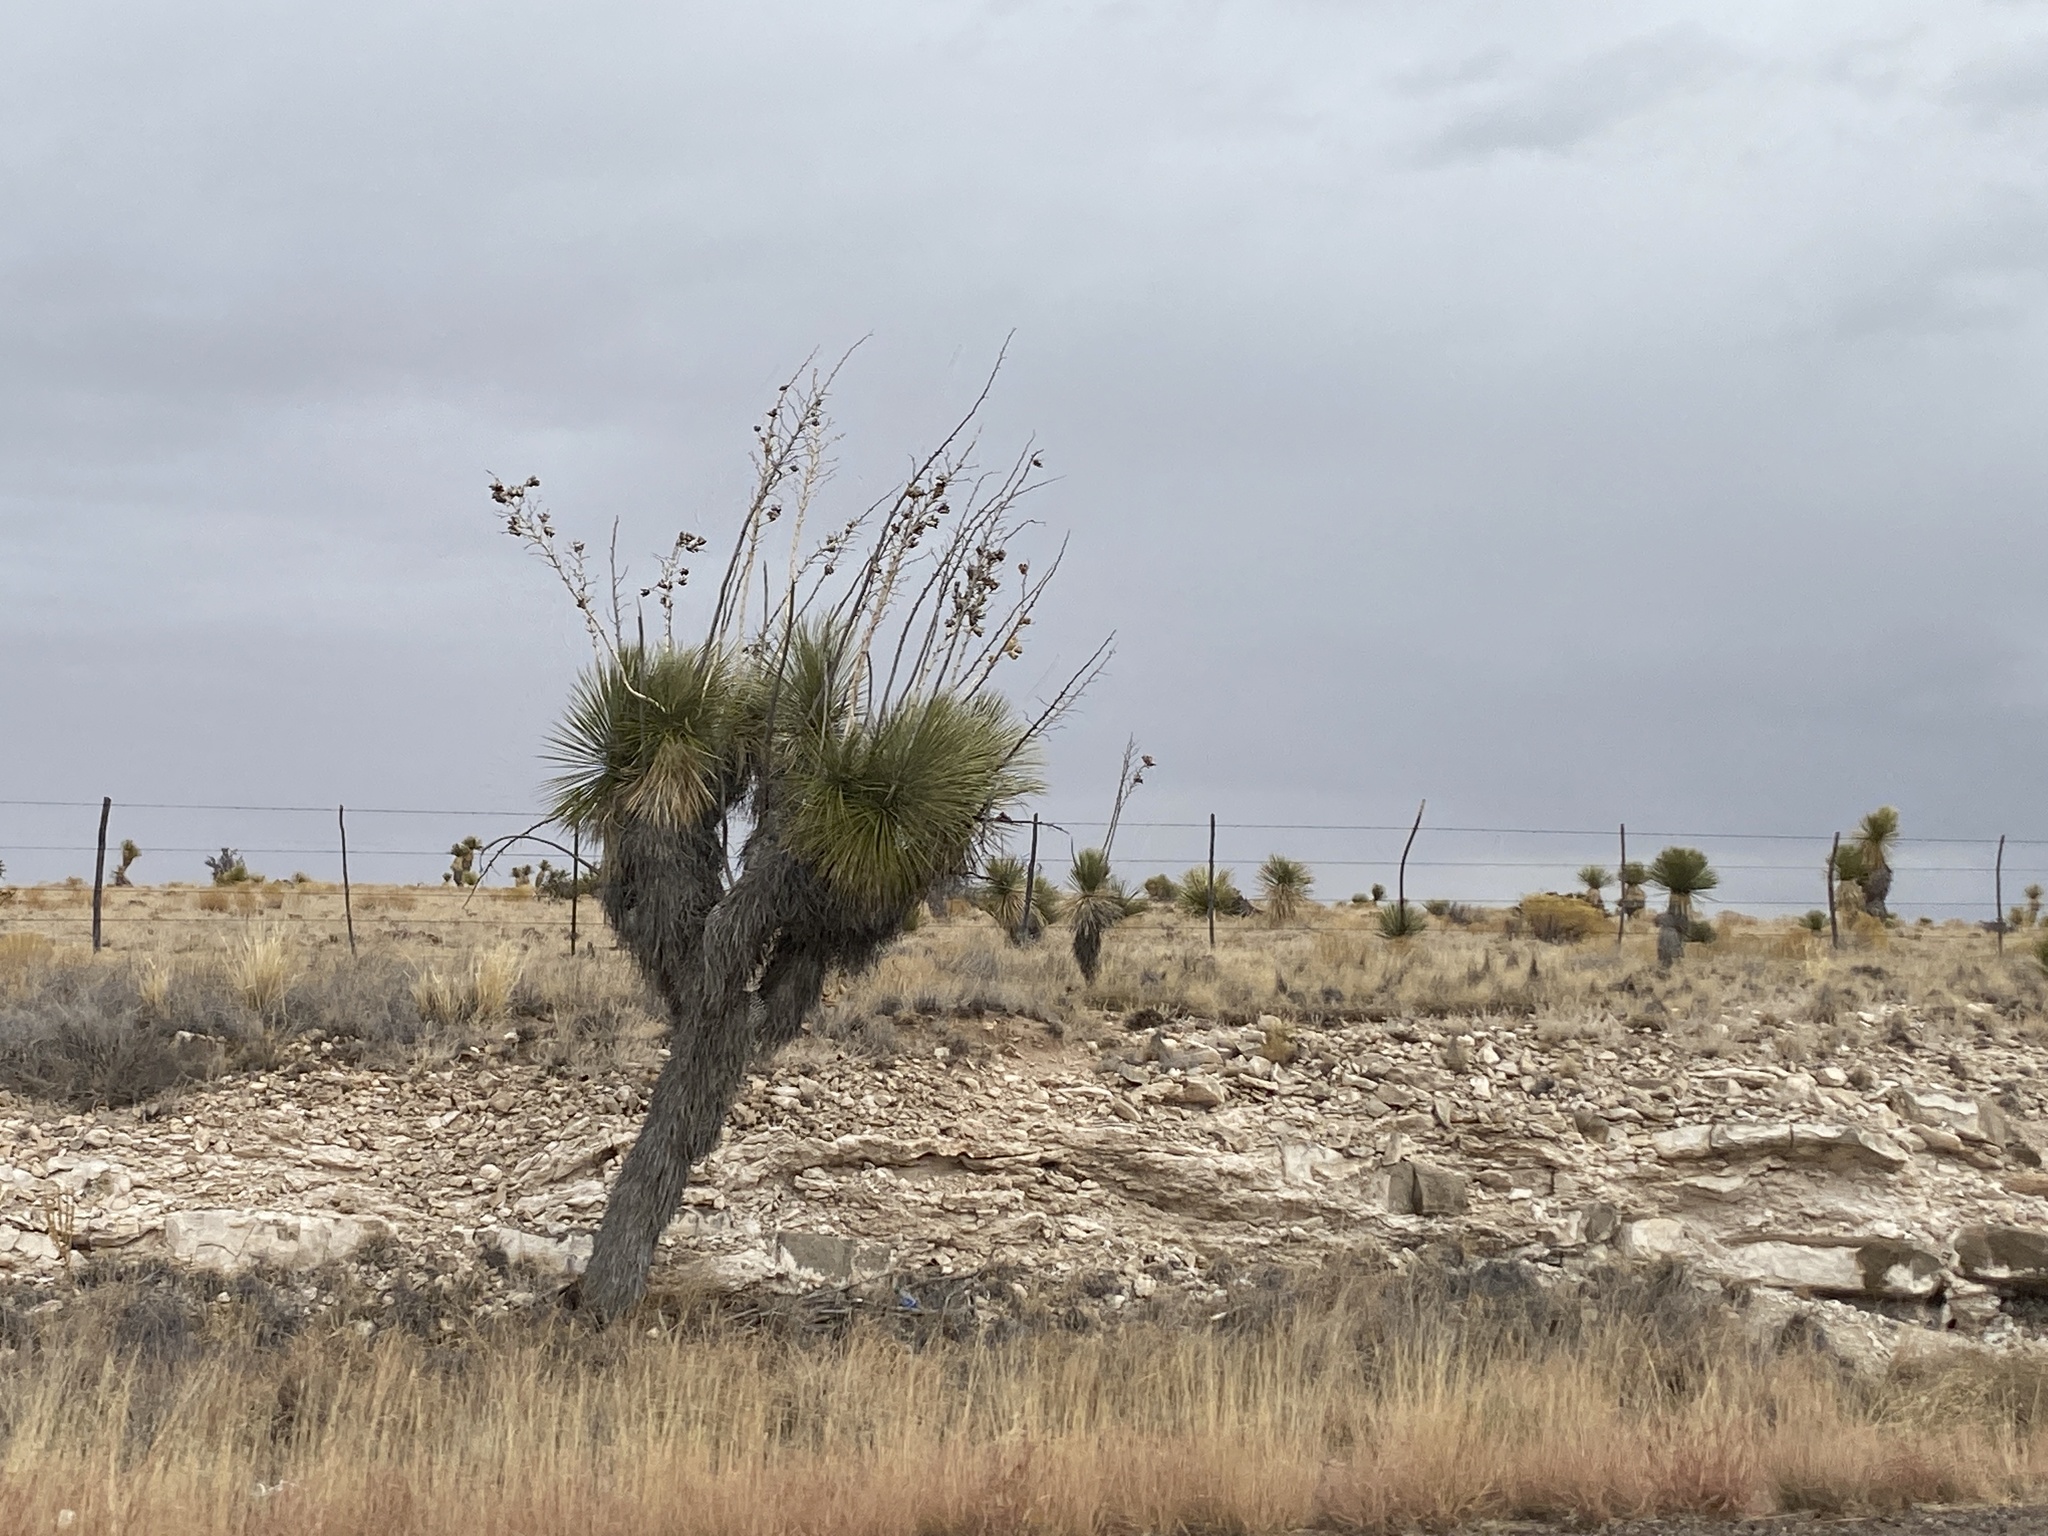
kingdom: Plantae
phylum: Tracheophyta
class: Liliopsida
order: Asparagales
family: Asparagaceae
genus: Yucca
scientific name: Yucca elata
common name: Palmella
